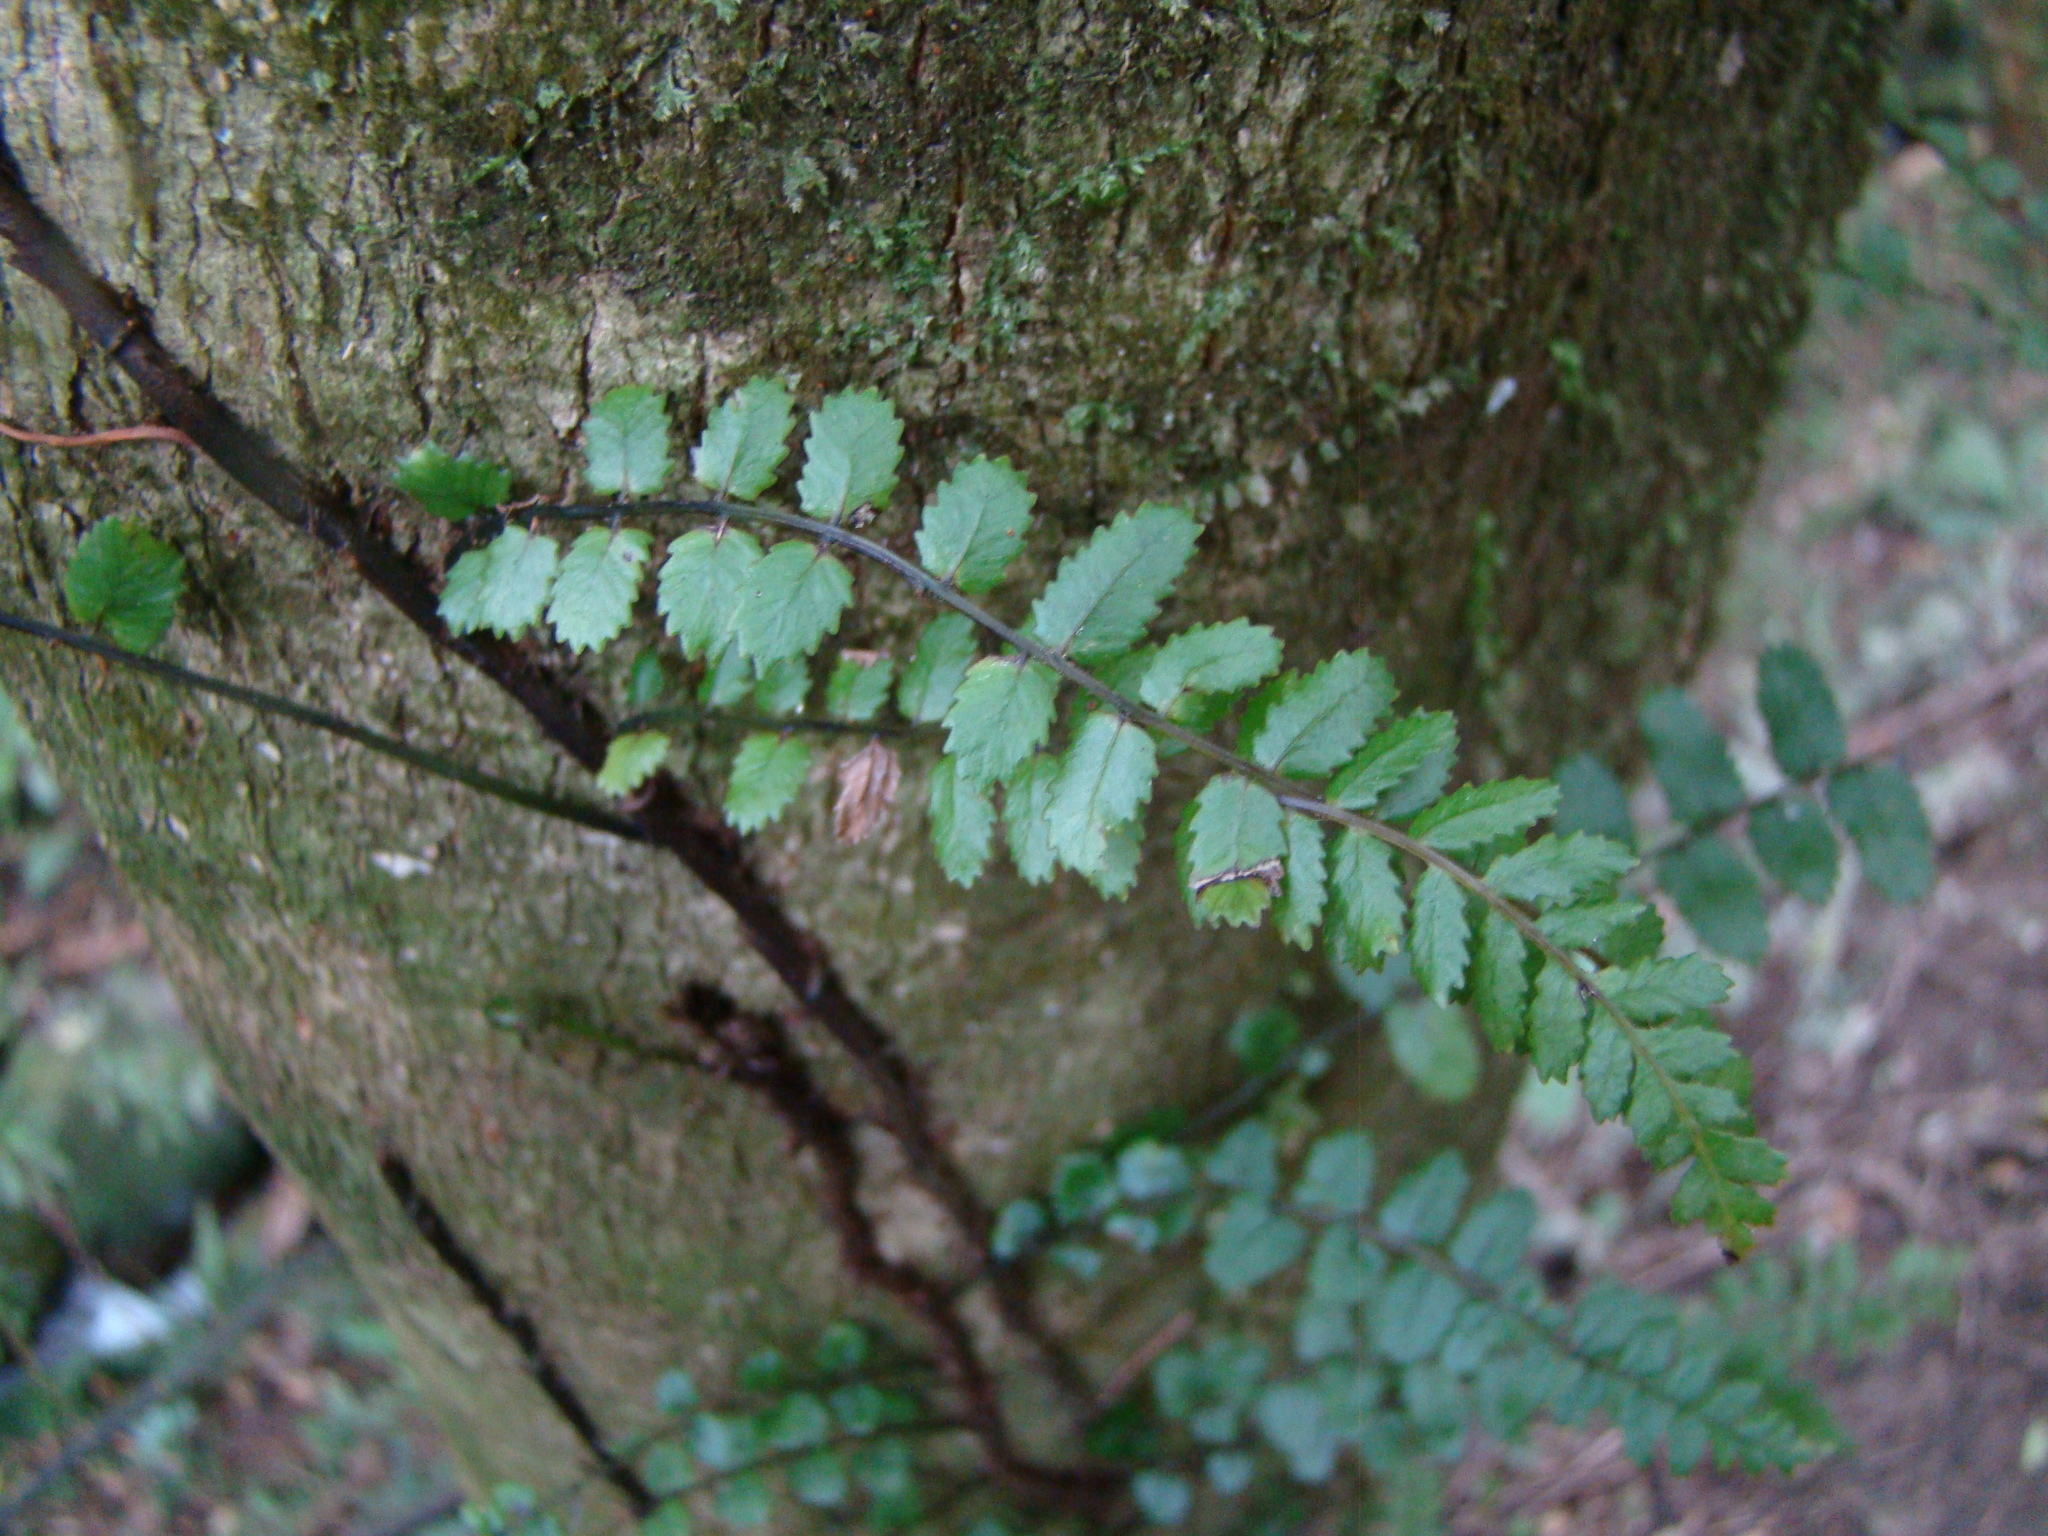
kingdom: Plantae
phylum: Tracheophyta
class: Polypodiopsida
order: Polypodiales
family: Blechnaceae
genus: Icarus
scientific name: Icarus filiformis
